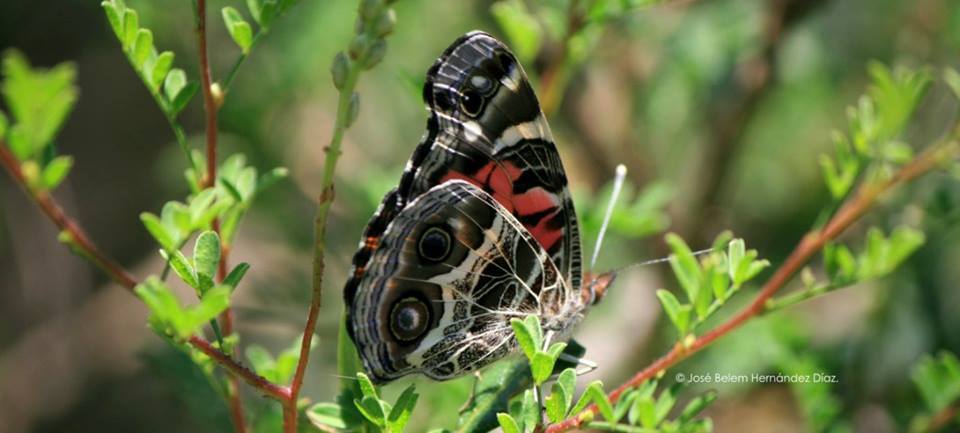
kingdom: Animalia
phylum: Arthropoda
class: Insecta
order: Lepidoptera
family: Nymphalidae
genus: Vanessa
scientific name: Vanessa virginiensis
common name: American lady
